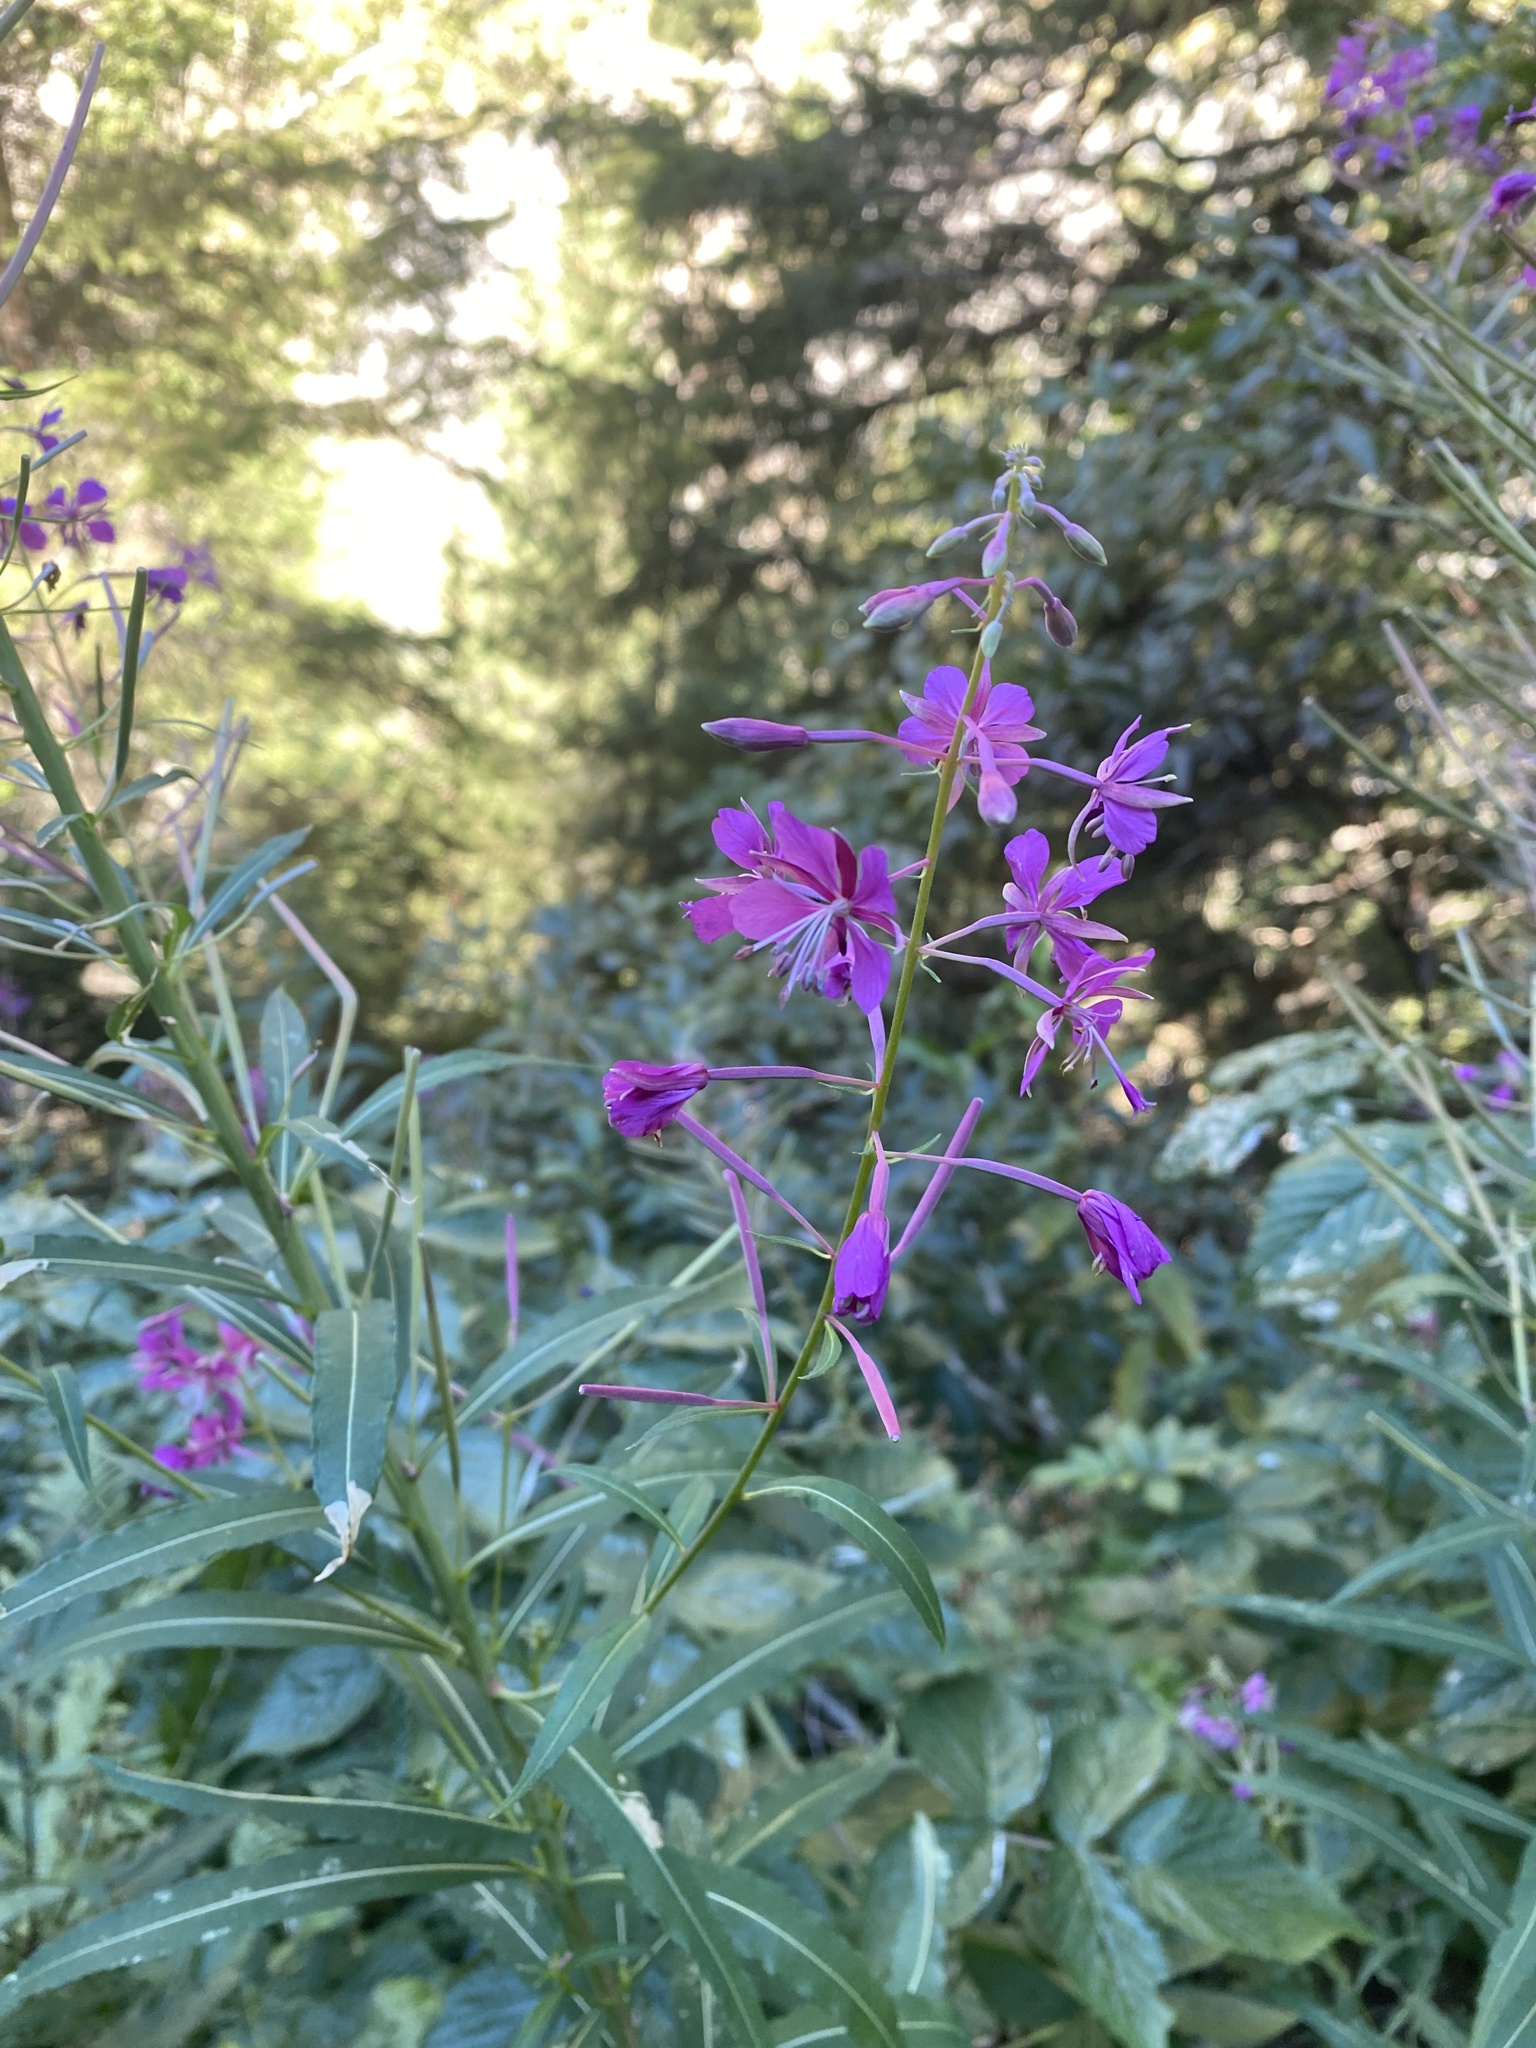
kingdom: Plantae
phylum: Tracheophyta
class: Magnoliopsida
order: Myrtales
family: Onagraceae
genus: Chamaenerion
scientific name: Chamaenerion angustifolium
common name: Fireweed
